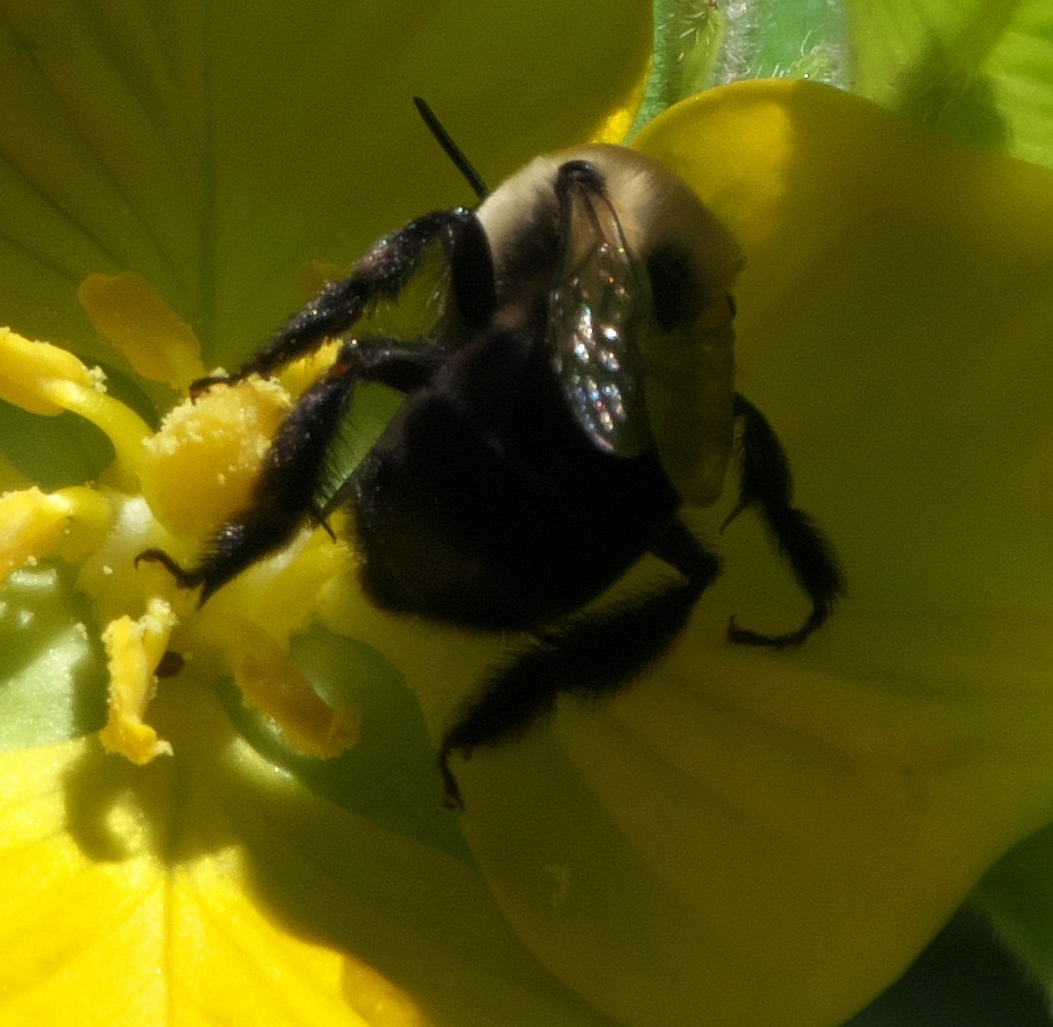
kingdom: Animalia
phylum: Arthropoda
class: Insecta
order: Hymenoptera
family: Apidae
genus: Anthophora
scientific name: Anthophora abrupta
